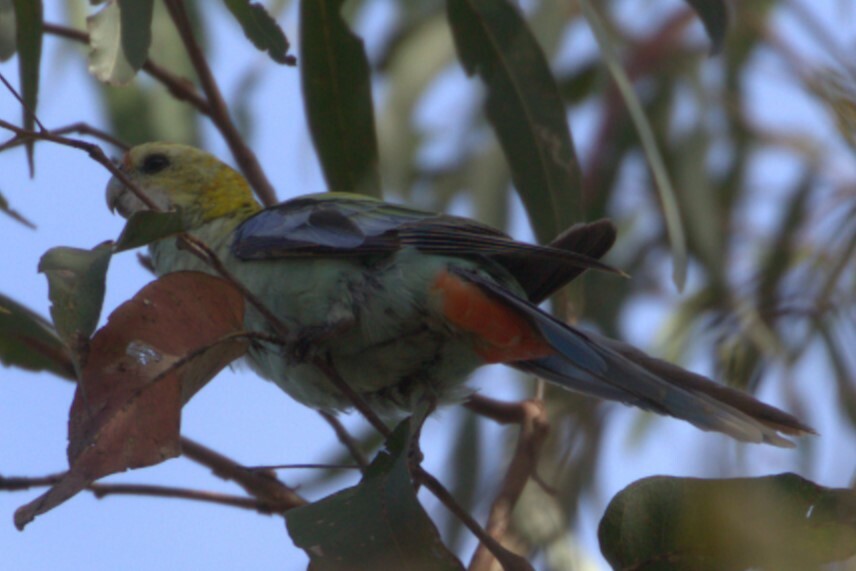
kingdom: Animalia
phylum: Chordata
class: Aves
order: Psittaciformes
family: Psittacidae
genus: Platycercus
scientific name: Platycercus adscitus
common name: Pale-headed rosella
